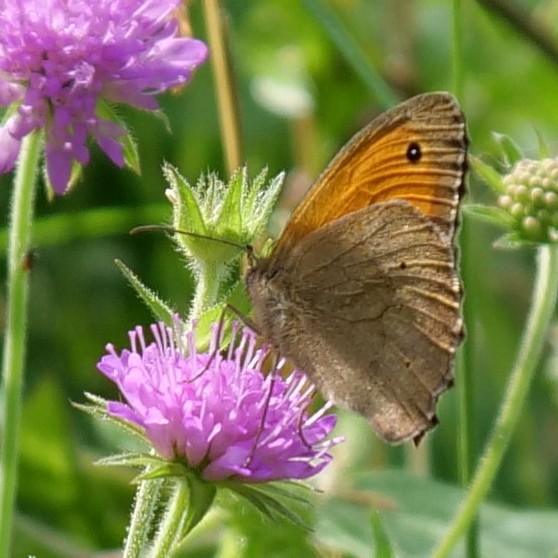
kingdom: Animalia
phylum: Arthropoda
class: Insecta
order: Lepidoptera
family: Nymphalidae
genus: Maniola
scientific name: Maniola jurtina
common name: Meadow brown
